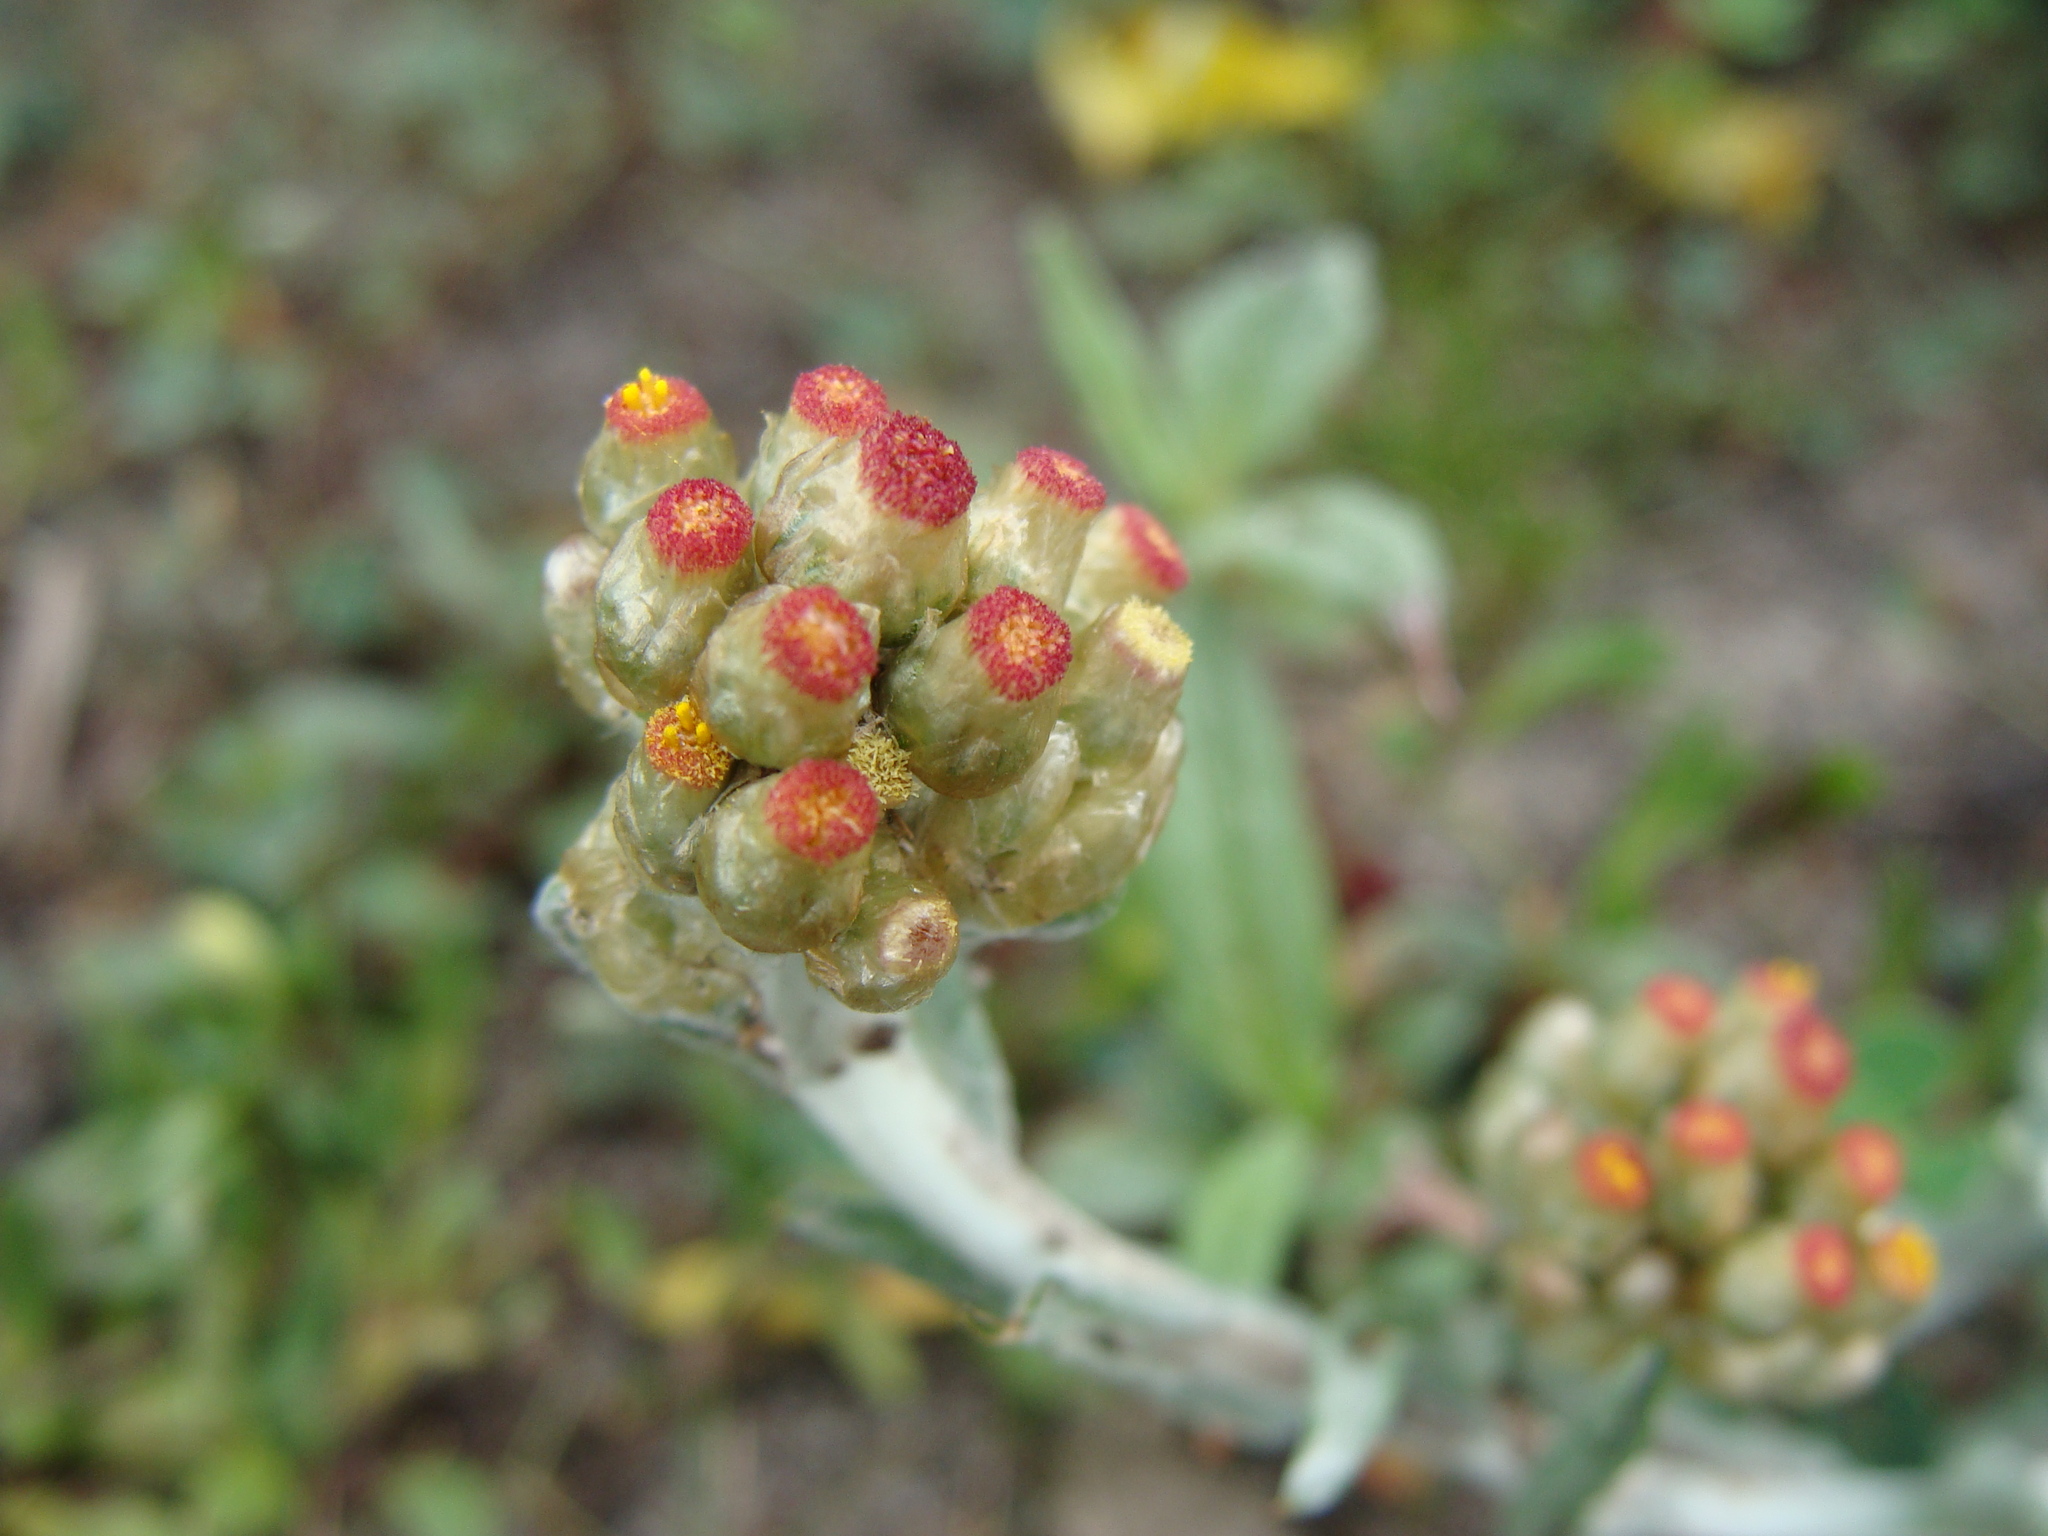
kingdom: Plantae
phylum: Tracheophyta
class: Magnoliopsida
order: Asterales
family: Asteraceae
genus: Helichrysum
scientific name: Helichrysum luteoalbum
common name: Daisy
